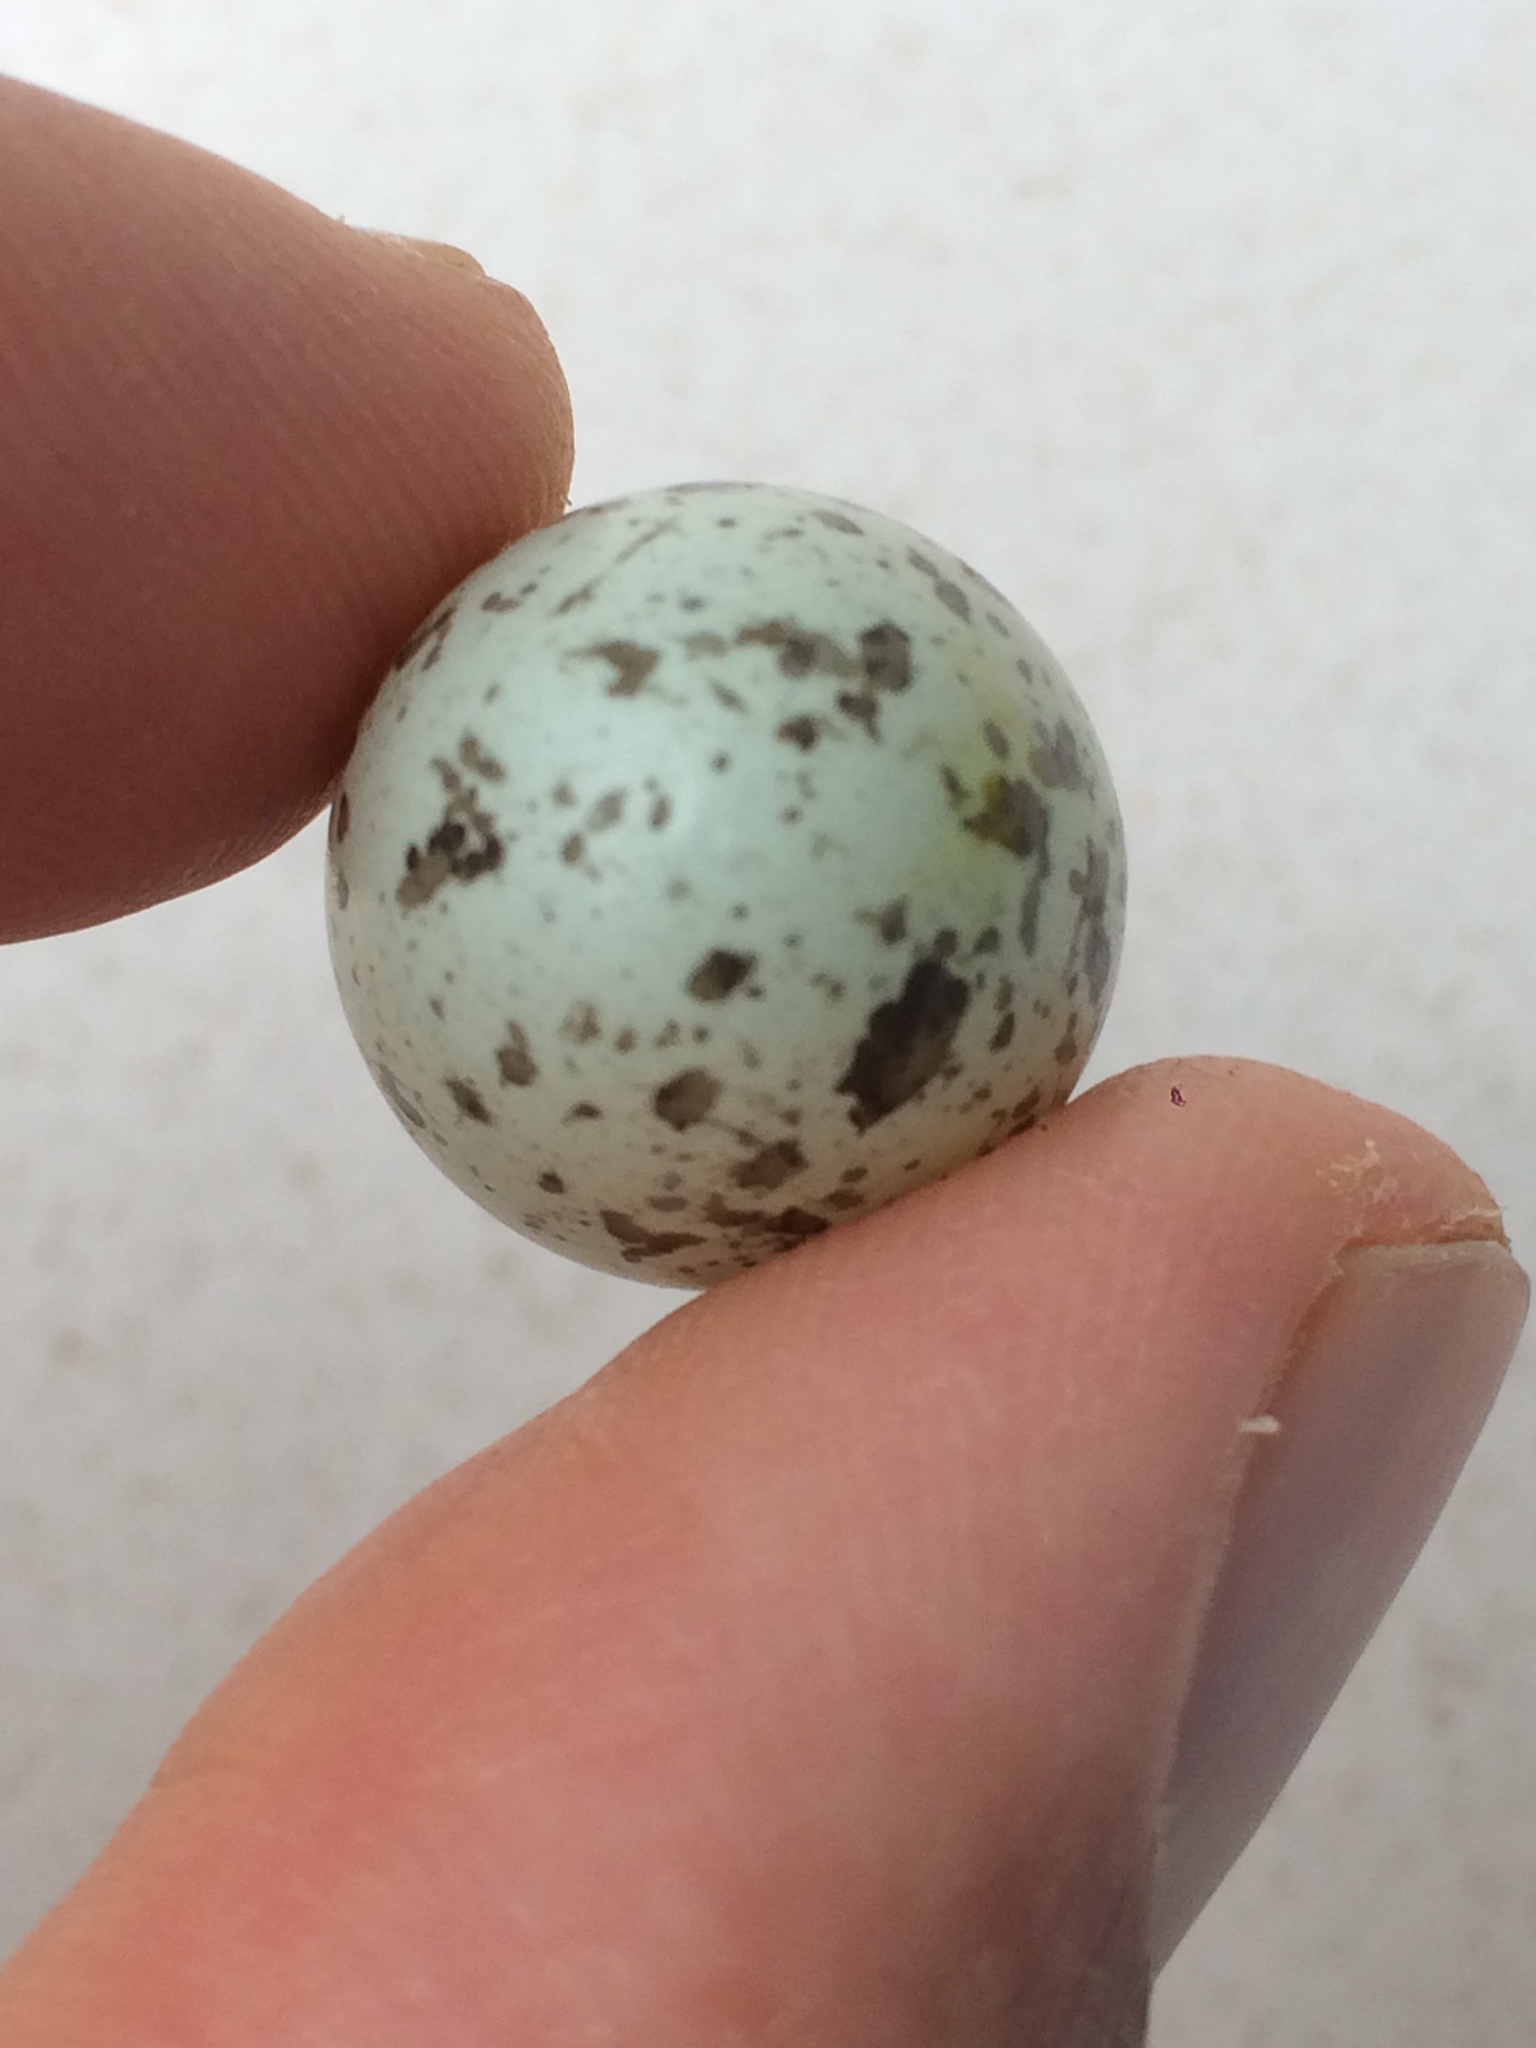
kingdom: Animalia
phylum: Chordata
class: Aves
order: Passeriformes
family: Passeridae
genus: Passer
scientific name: Passer domesticus
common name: House sparrow
